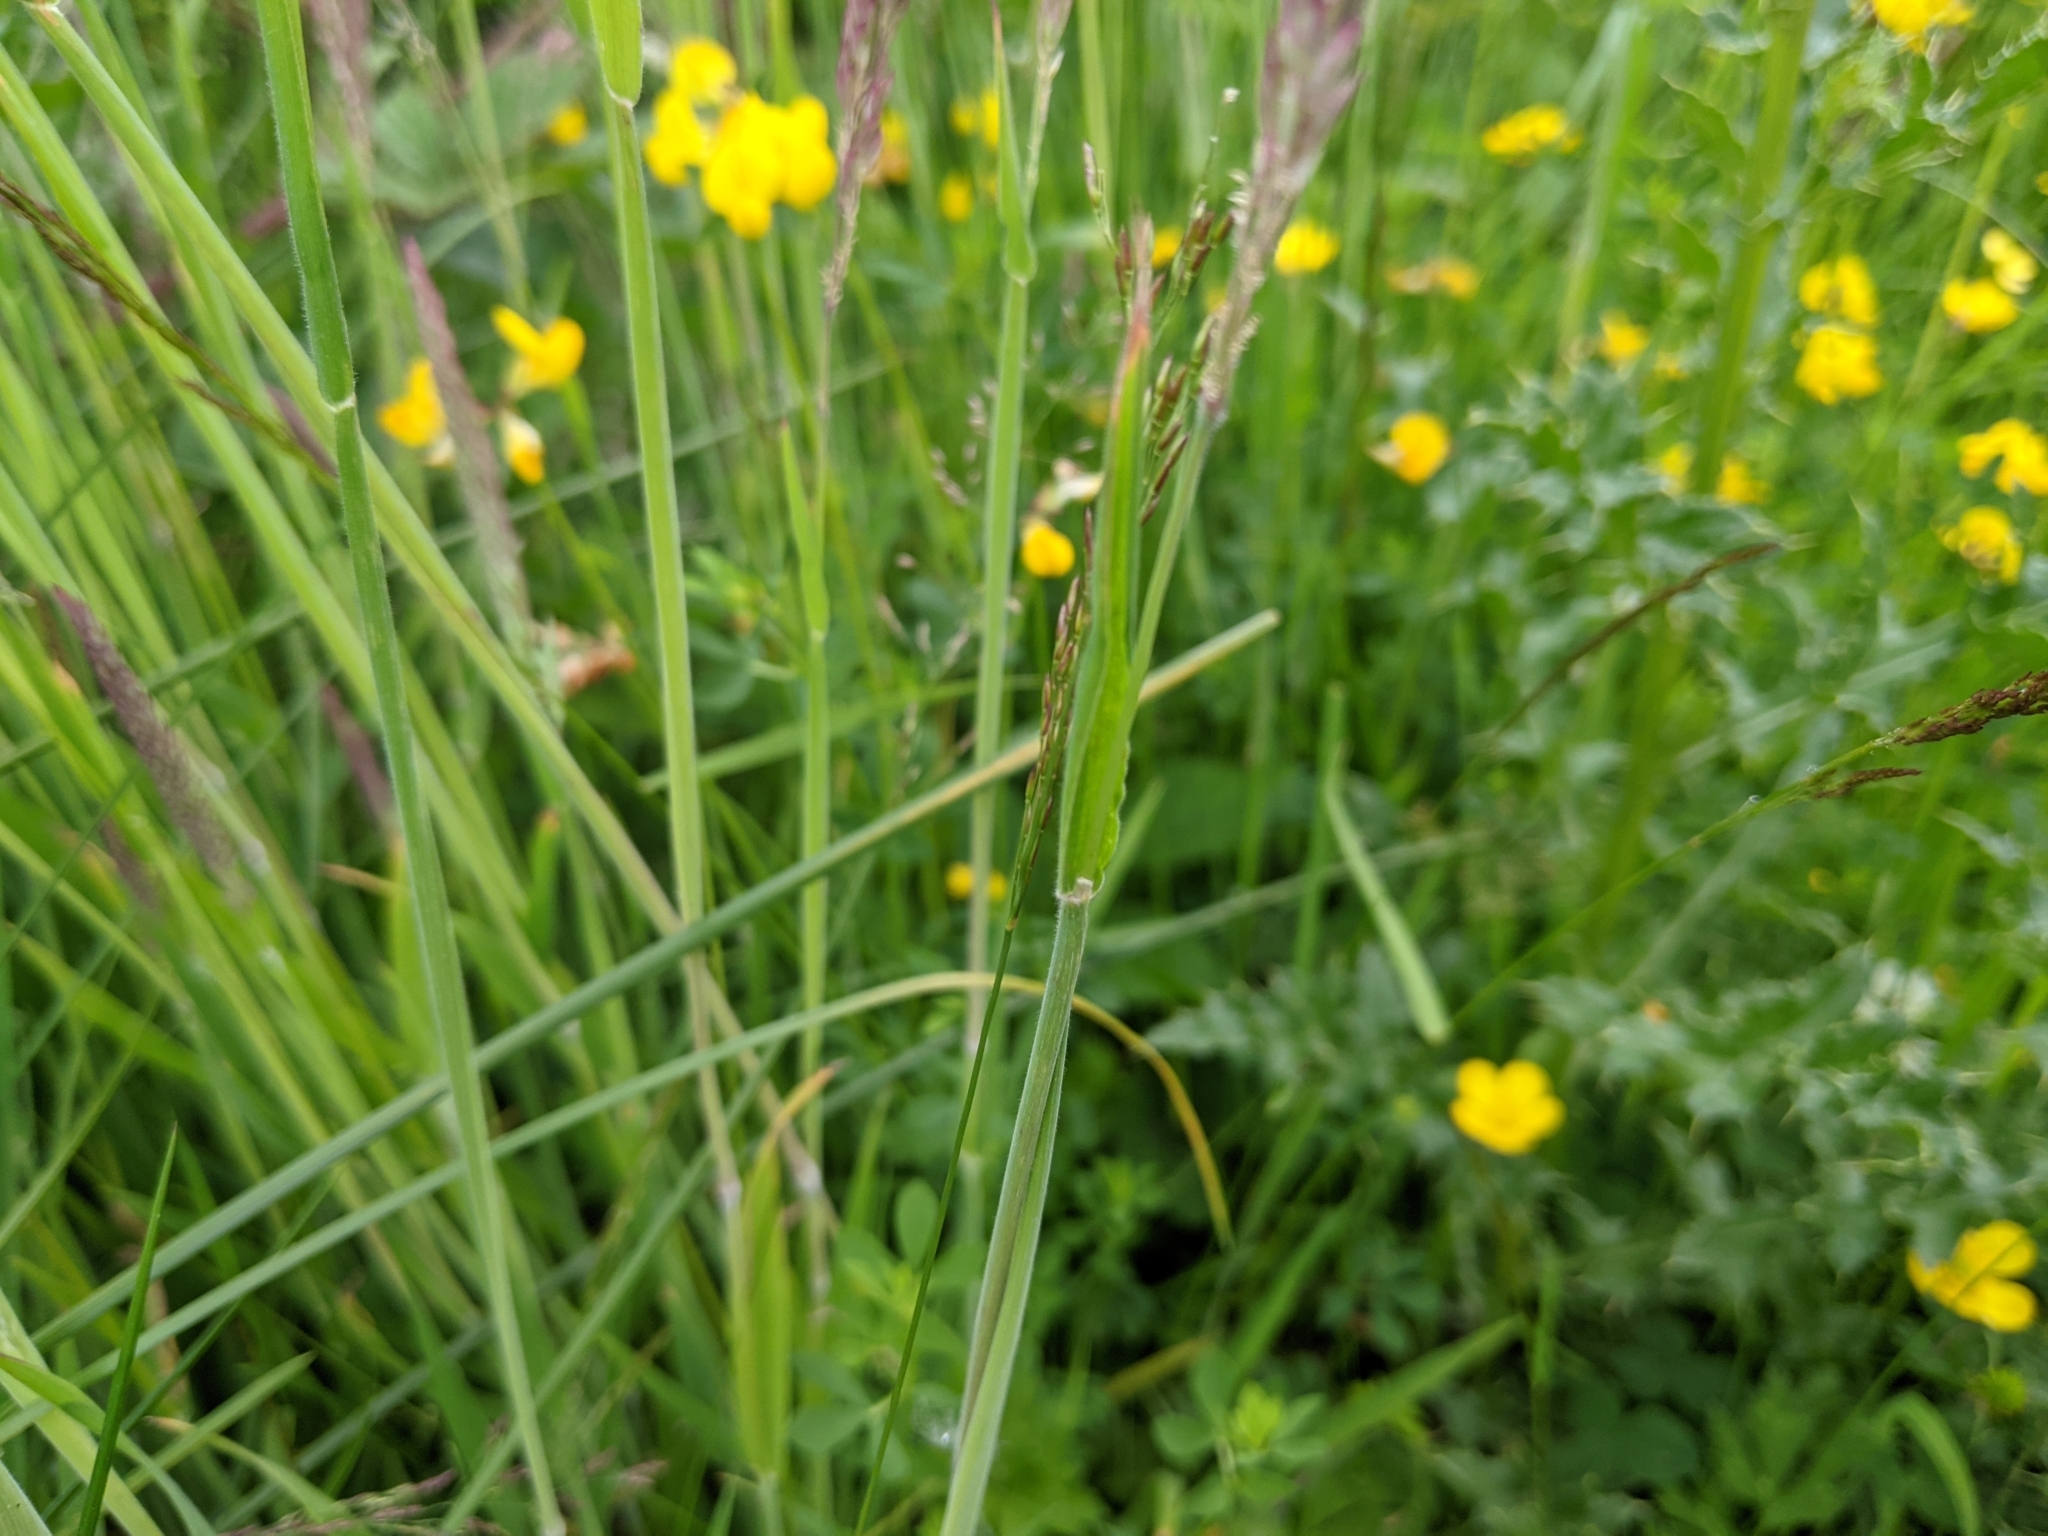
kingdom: Plantae
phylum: Tracheophyta
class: Liliopsida
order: Poales
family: Poaceae
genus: Holcus
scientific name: Holcus lanatus
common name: Yorkshire-fog
